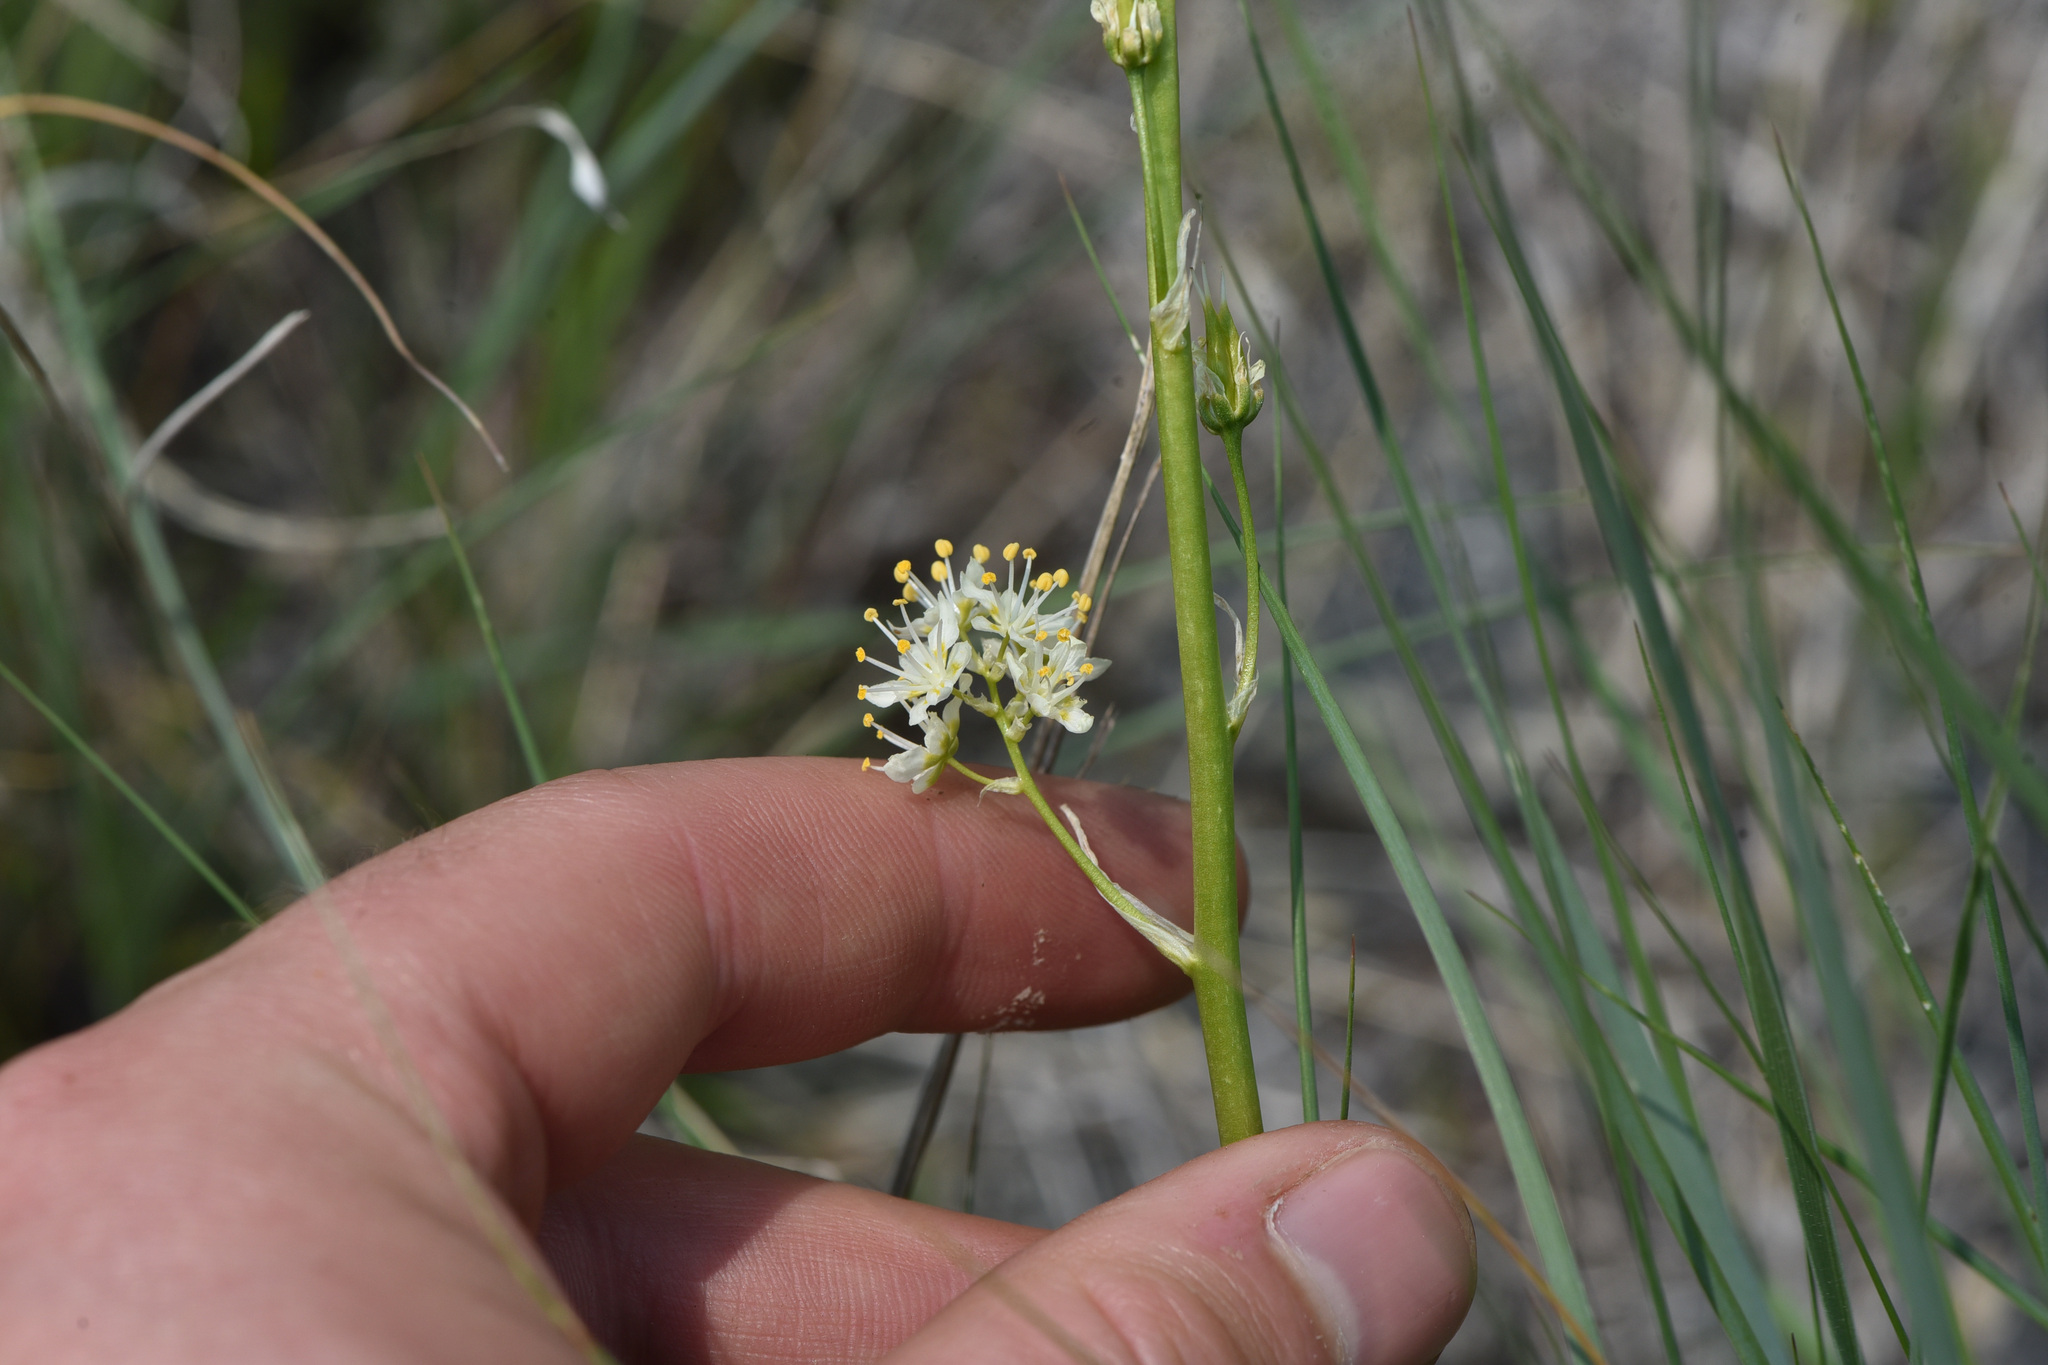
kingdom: Plantae
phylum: Tracheophyta
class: Liliopsida
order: Liliales
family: Melanthiaceae
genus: Toxicoscordion
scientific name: Toxicoscordion paniculatum
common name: Foothill death camas
